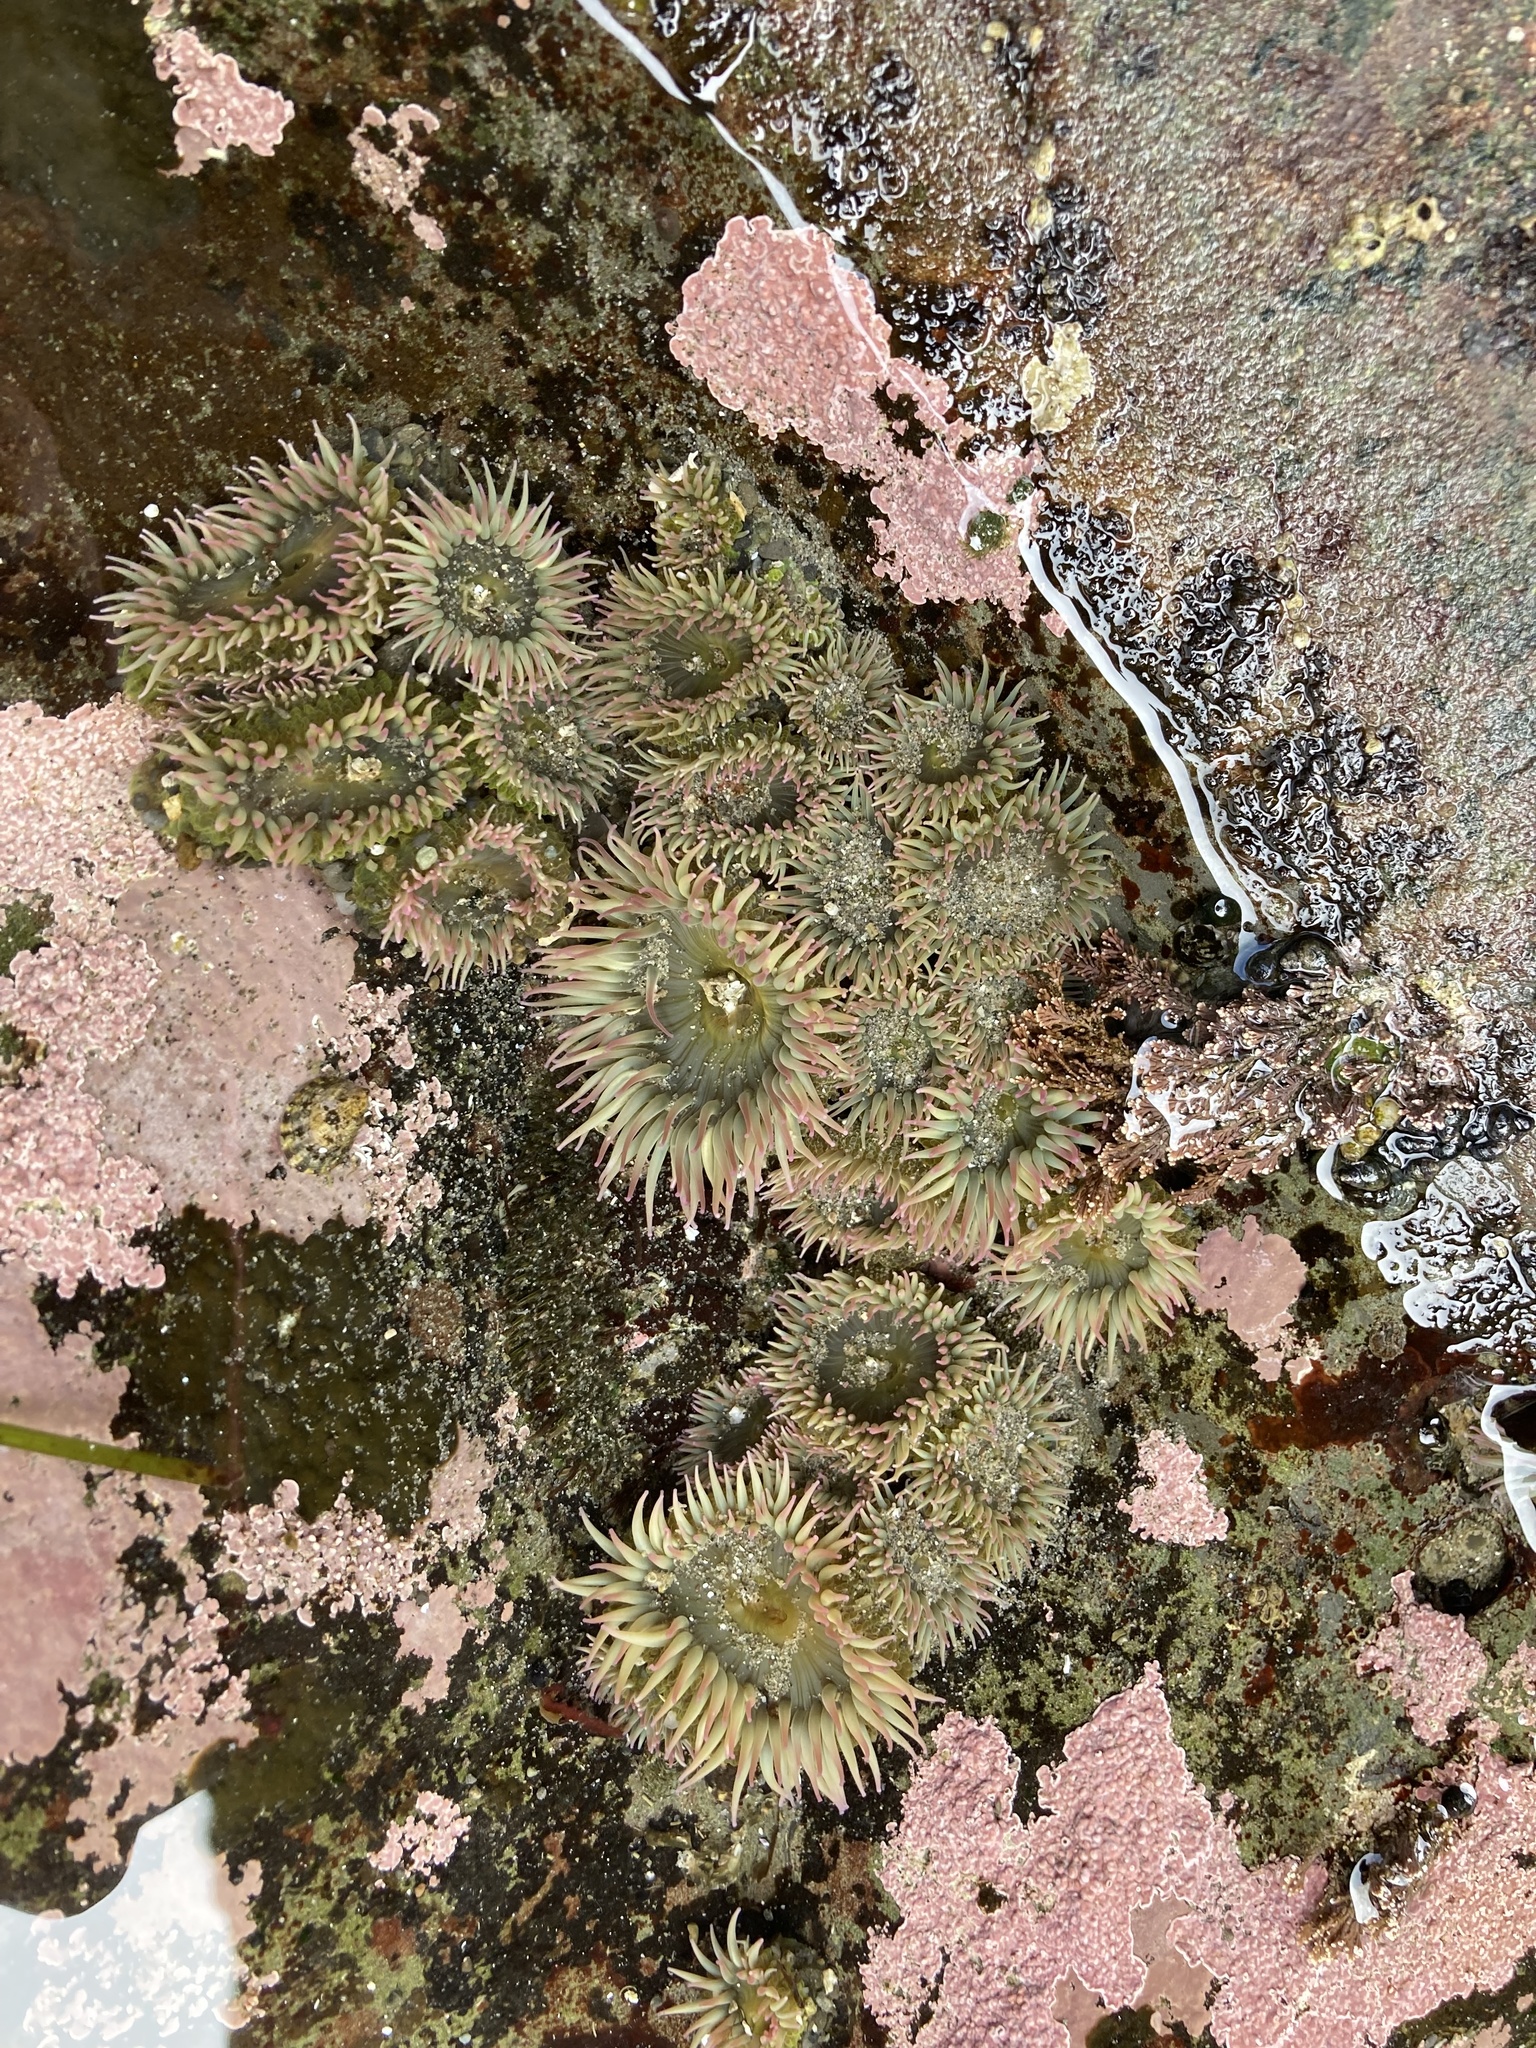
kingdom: Animalia
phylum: Cnidaria
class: Anthozoa
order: Actiniaria
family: Actiniidae
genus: Anthopleura
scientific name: Anthopleura elegantissima
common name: Clonal anemone
